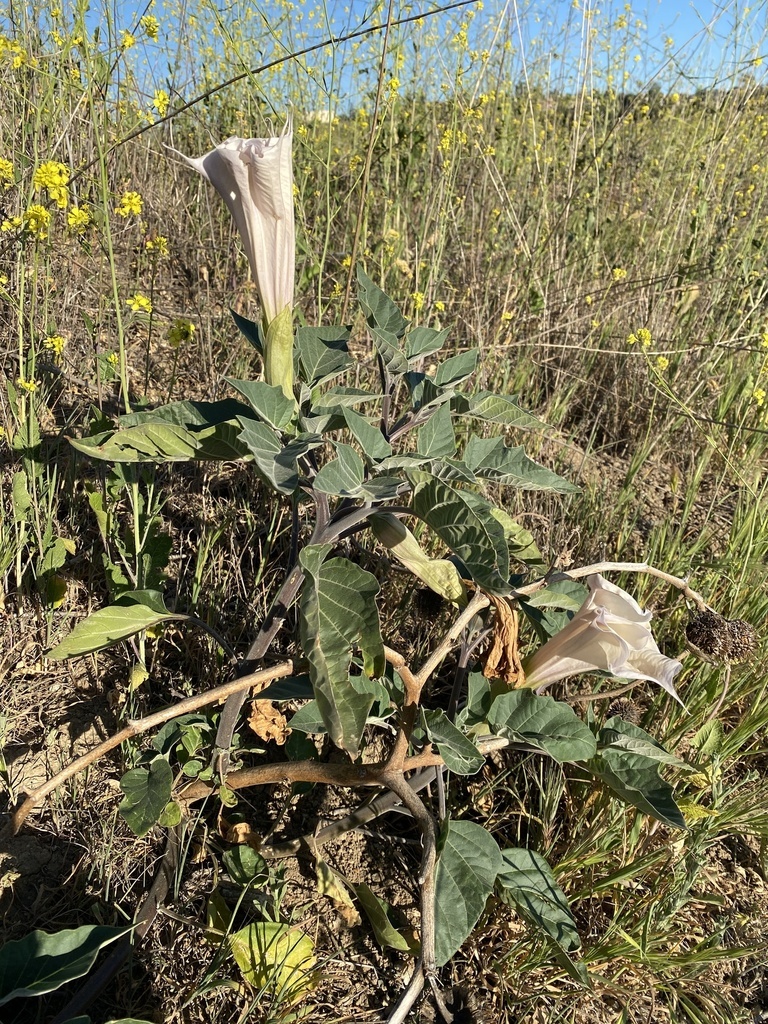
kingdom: Plantae
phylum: Tracheophyta
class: Magnoliopsida
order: Solanales
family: Solanaceae
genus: Datura
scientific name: Datura wrightii
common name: Sacred thorn-apple
